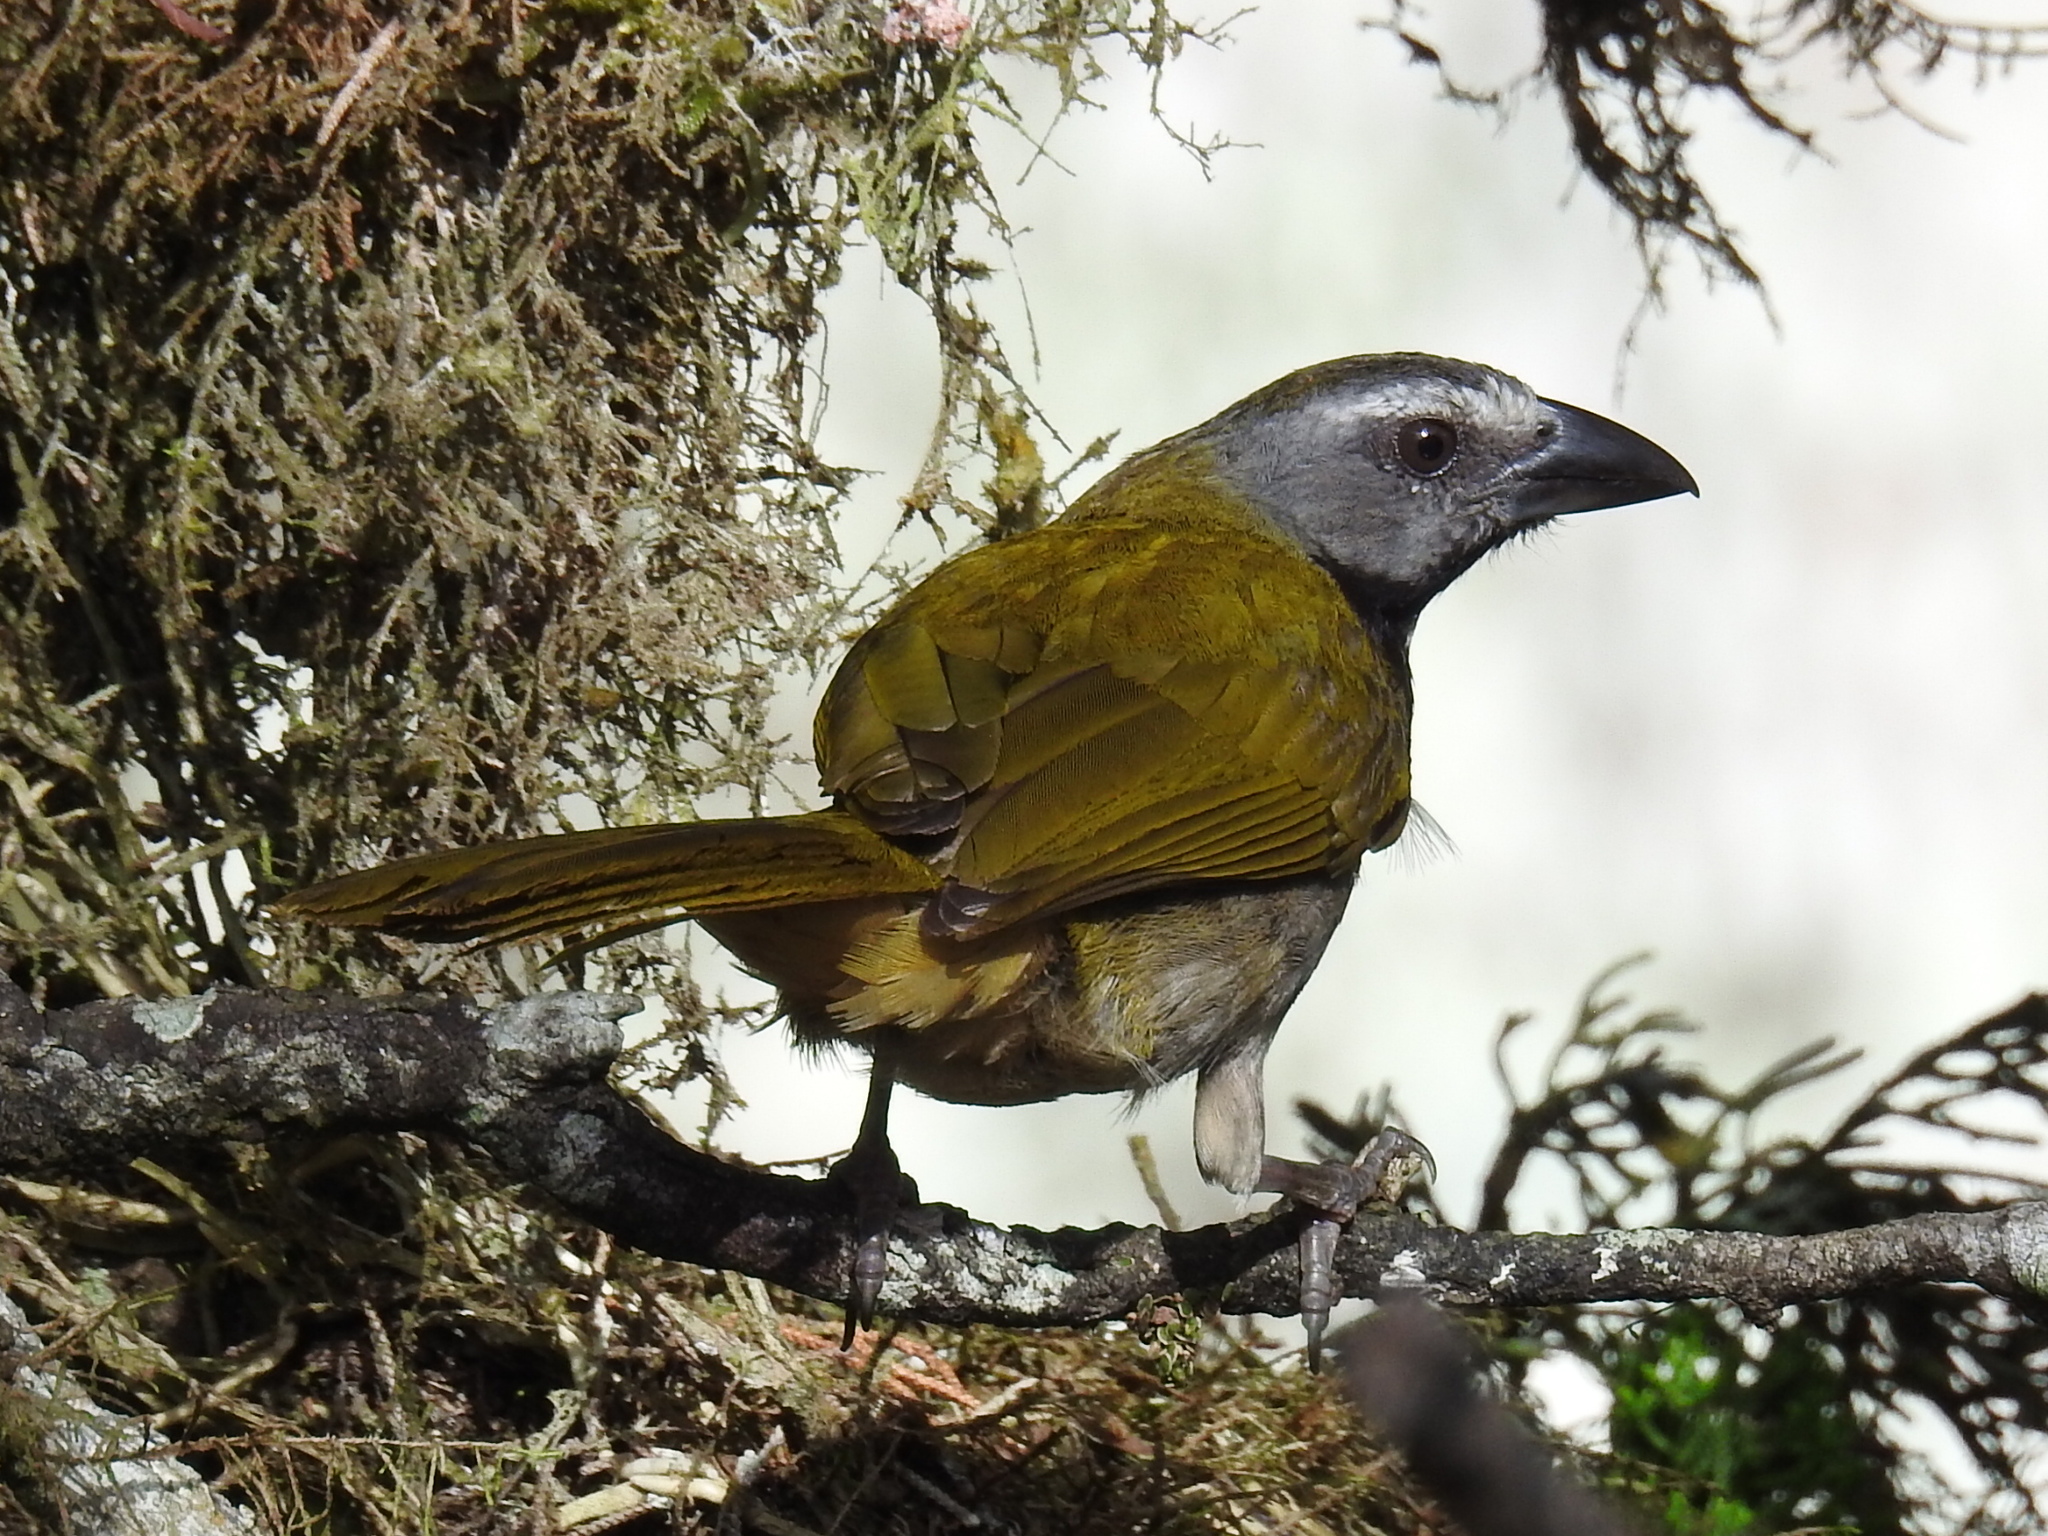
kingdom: Animalia
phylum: Chordata
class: Aves
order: Passeriformes
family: Thraupidae
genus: Saltator
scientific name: Saltator maximus
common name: Buff-throated saltator
